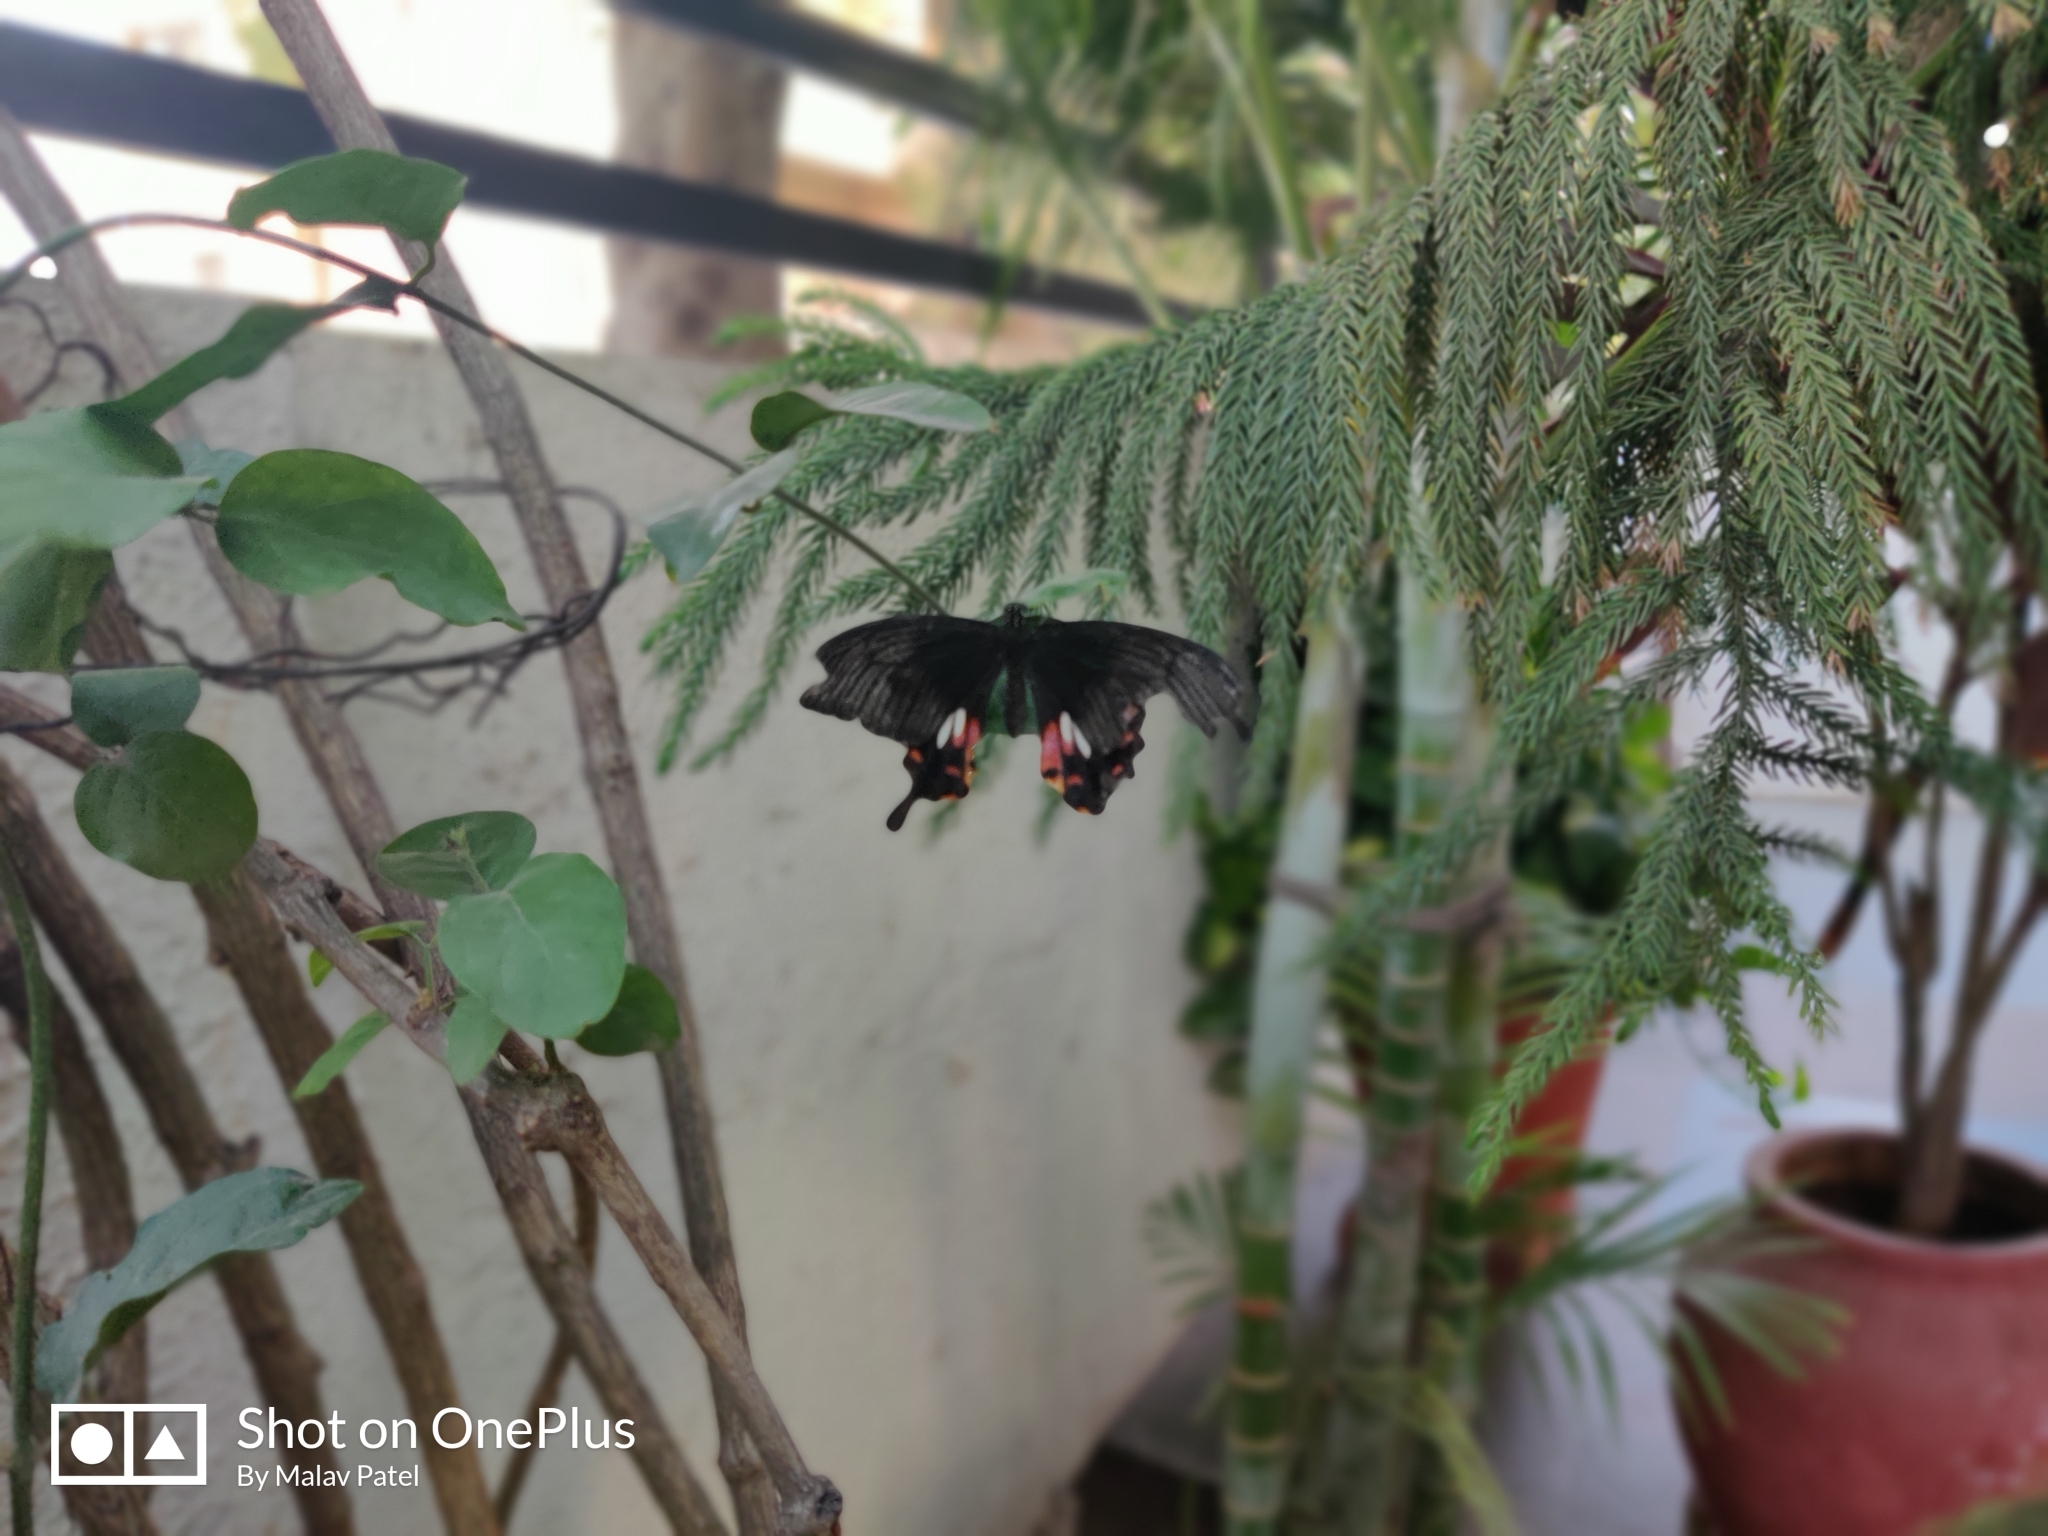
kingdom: Animalia
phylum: Arthropoda
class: Insecta
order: Lepidoptera
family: Papilionidae
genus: Papilio
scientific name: Papilio polytes
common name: Common mormon
